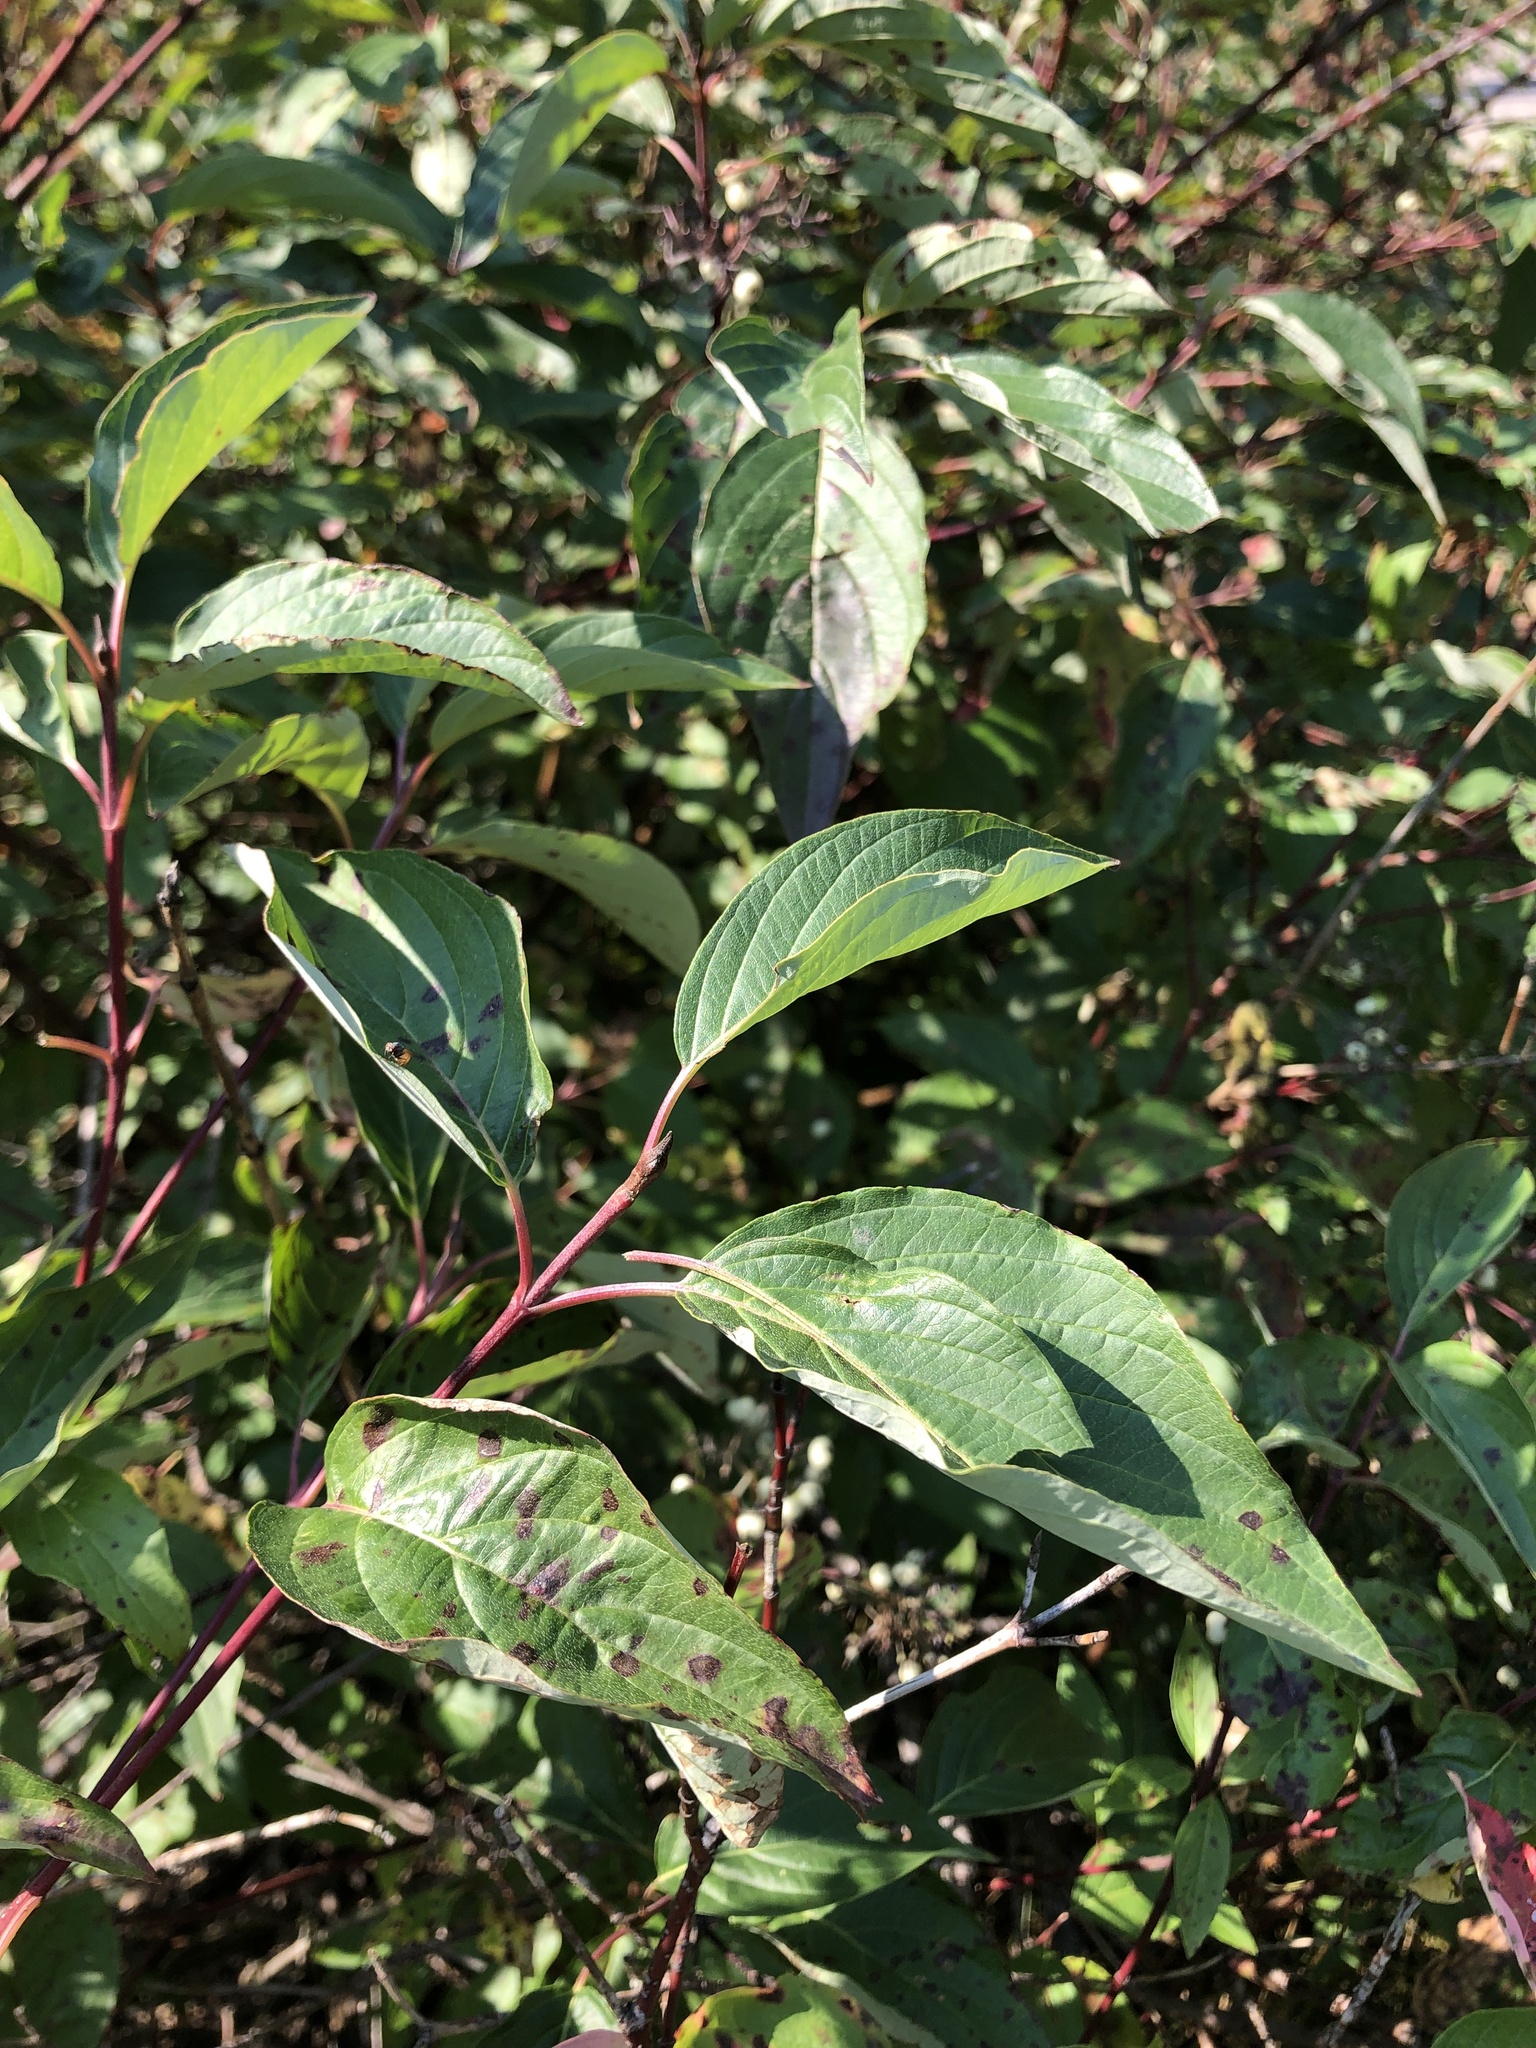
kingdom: Plantae
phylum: Tracheophyta
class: Magnoliopsida
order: Cornales
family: Cornaceae
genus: Cornus
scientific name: Cornus sericea
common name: Red-osier dogwood
